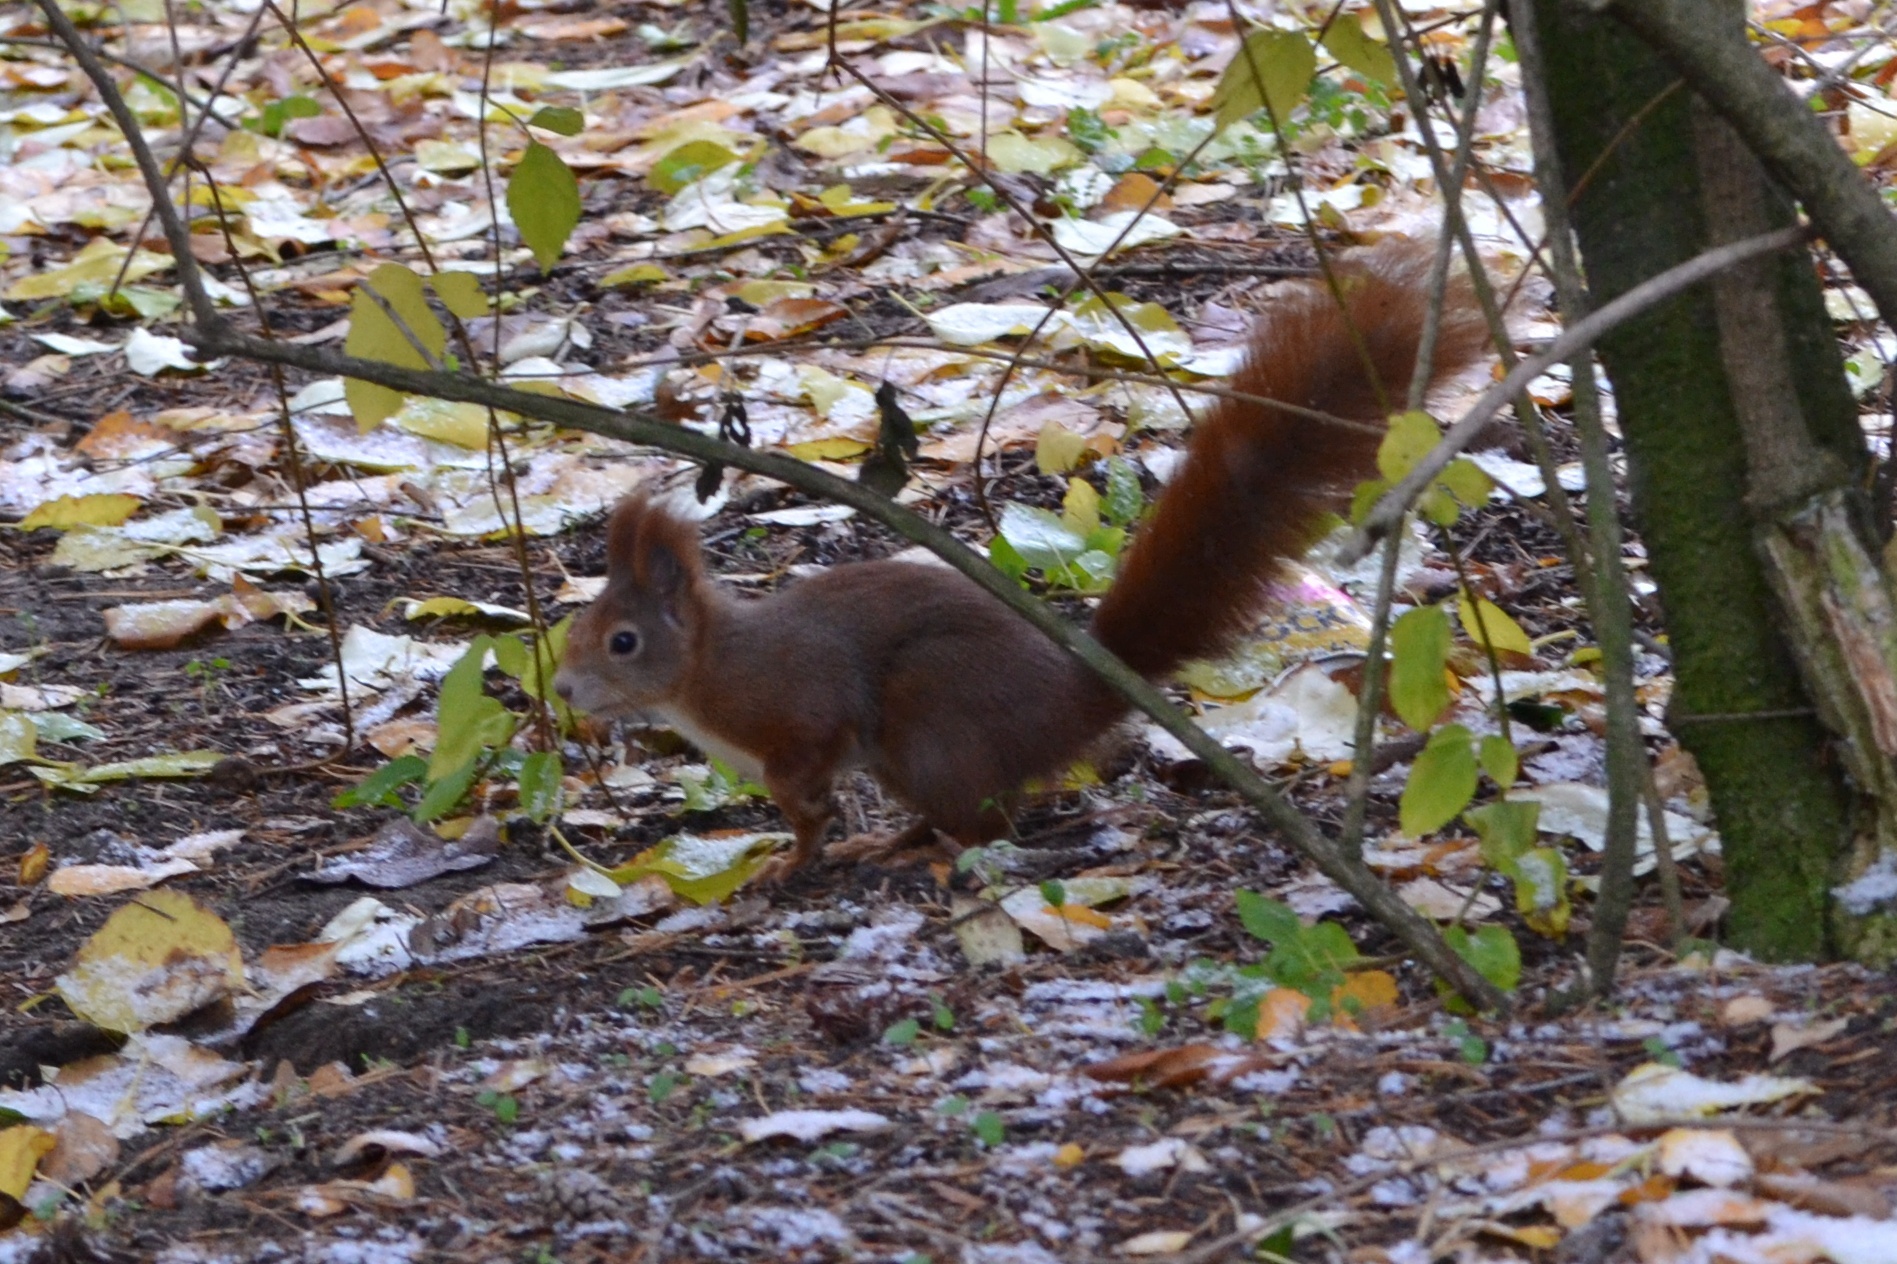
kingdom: Animalia
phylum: Chordata
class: Mammalia
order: Rodentia
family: Sciuridae
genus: Sciurus
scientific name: Sciurus vulgaris
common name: Eurasian red squirrel
